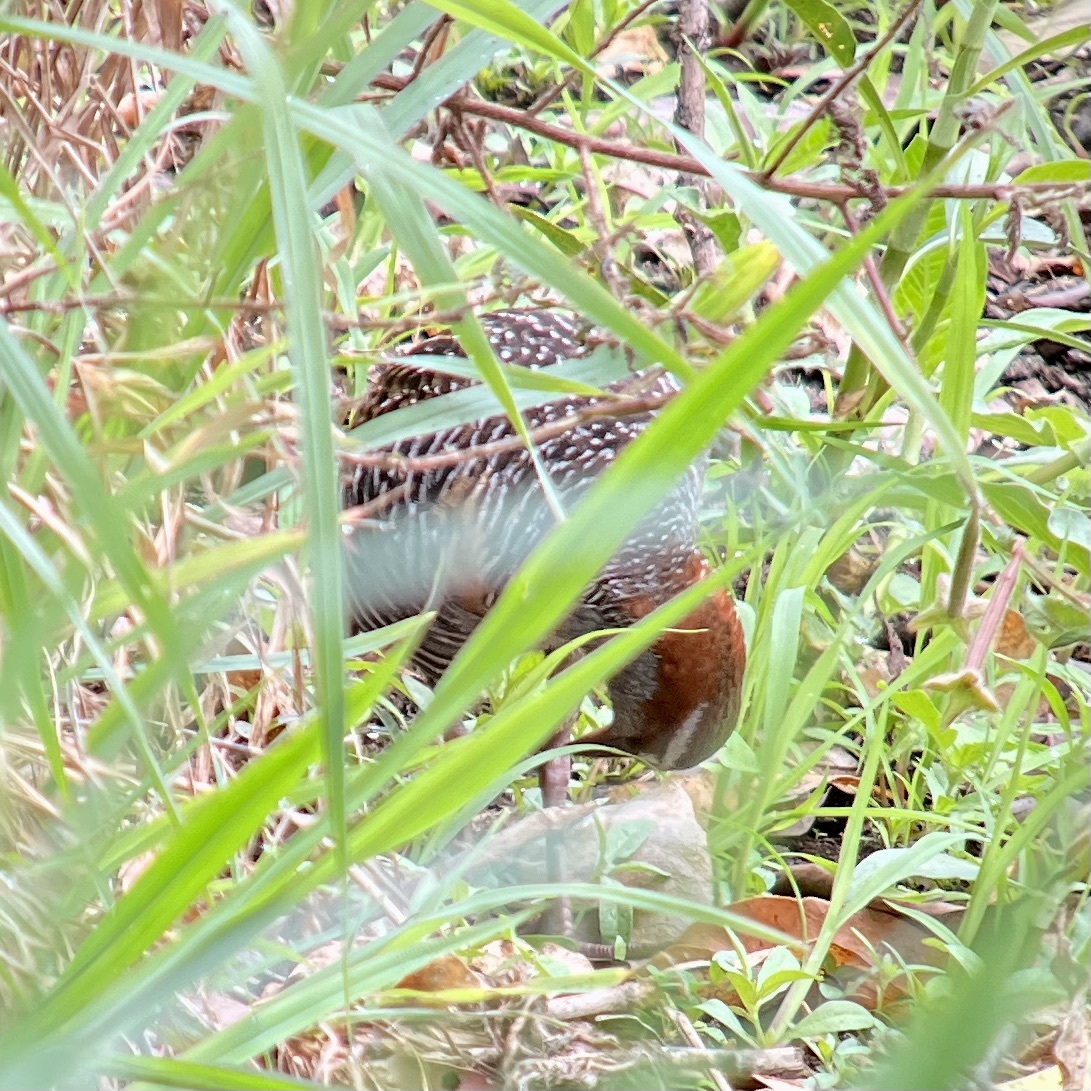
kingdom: Animalia
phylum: Chordata
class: Aves
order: Gruiformes
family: Rallidae
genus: Gallirallus
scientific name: Gallirallus philippensis
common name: Buff-banded rail
